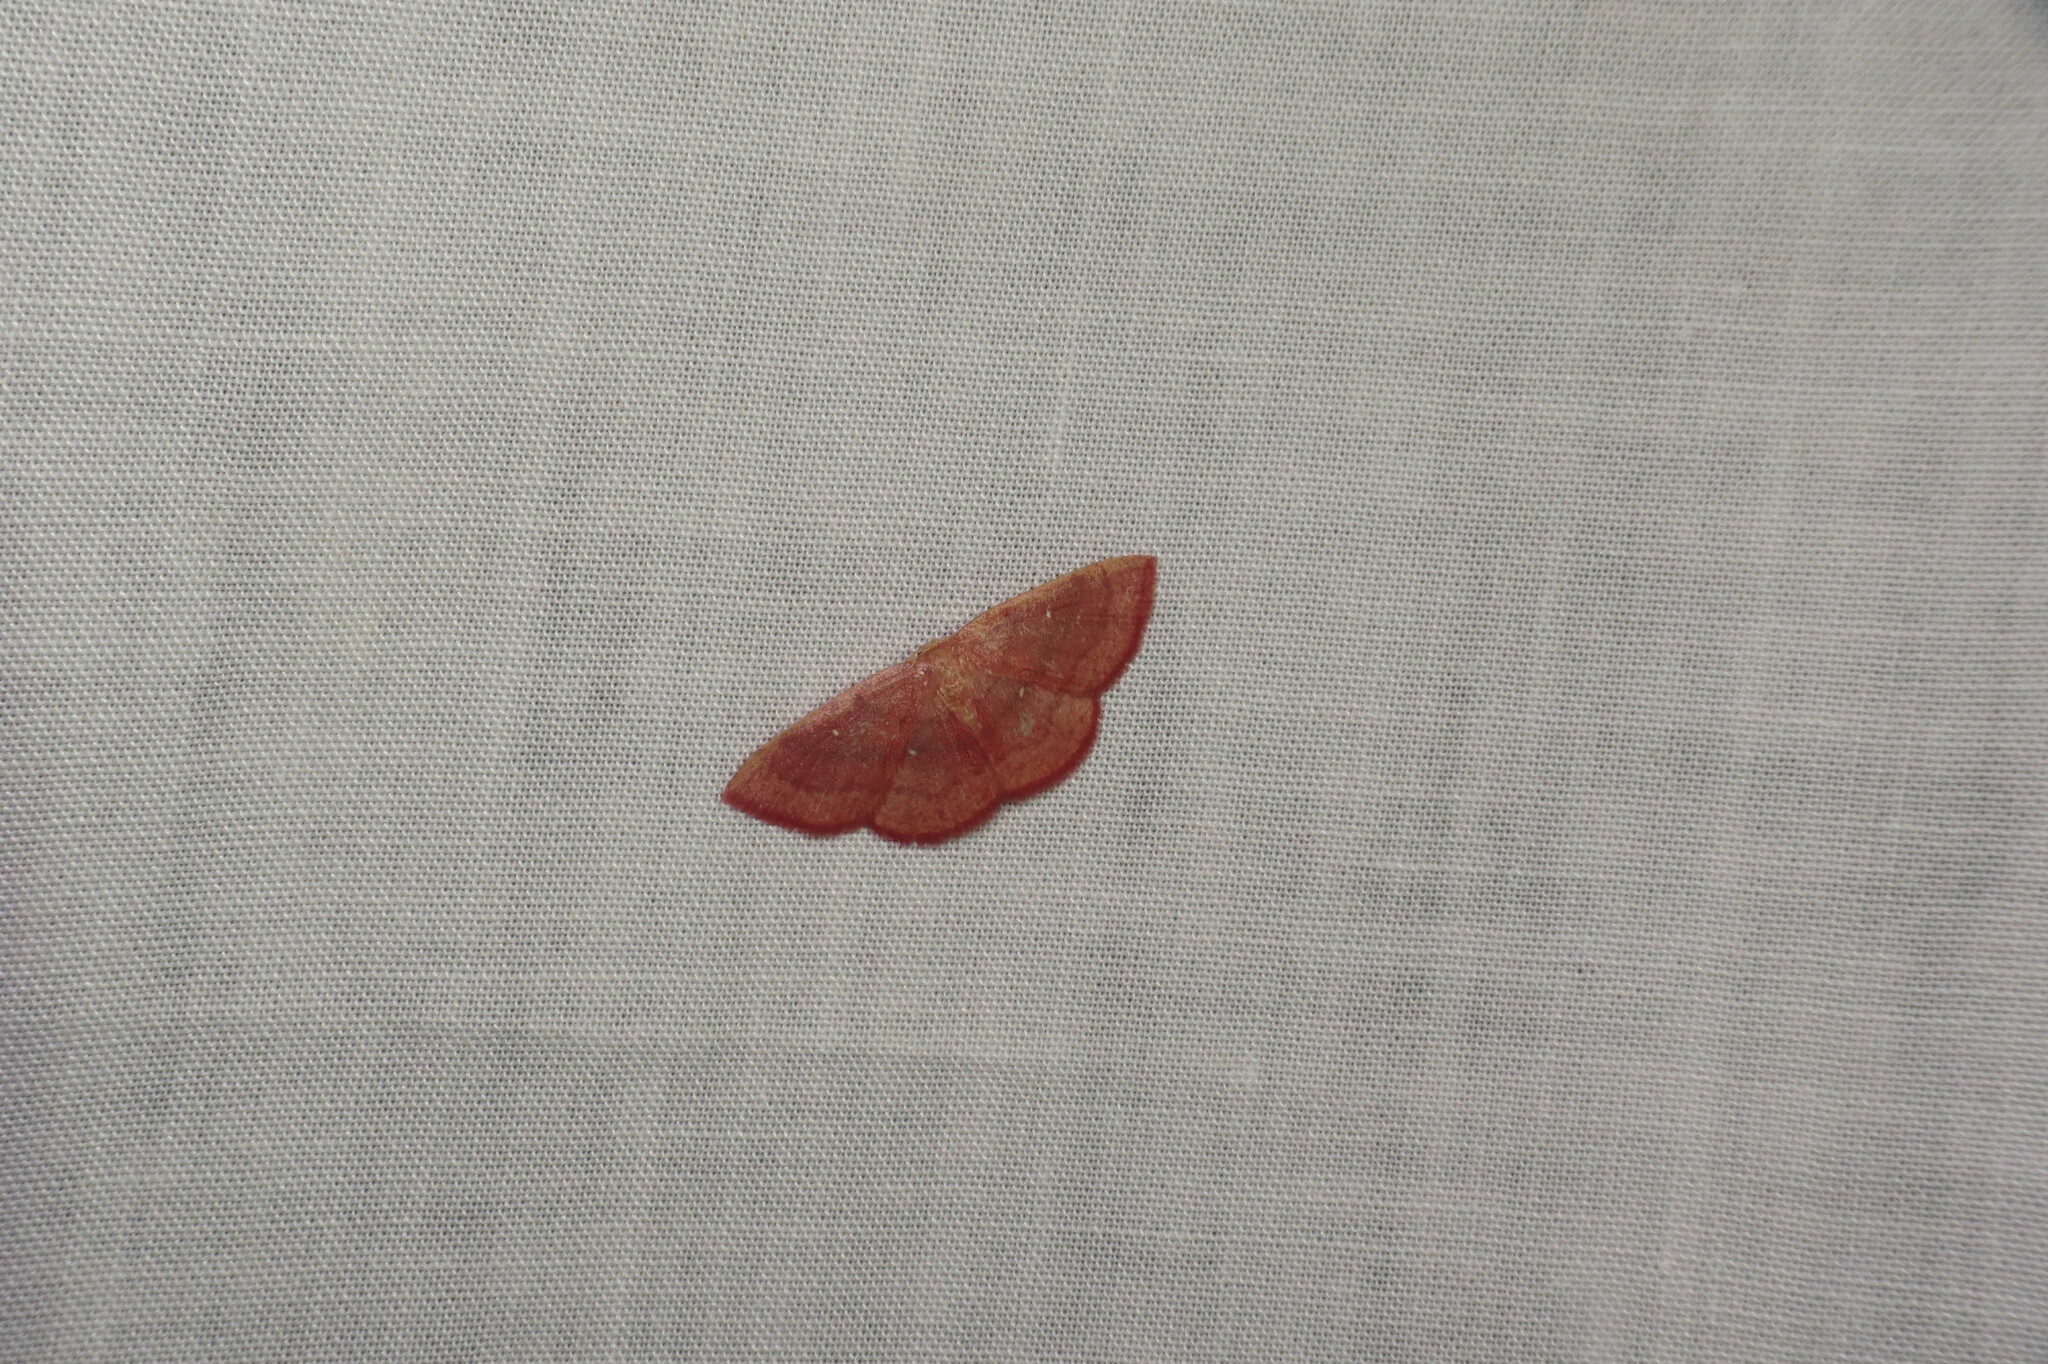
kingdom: Animalia
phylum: Arthropoda
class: Insecta
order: Lepidoptera
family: Geometridae
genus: Cyclophora
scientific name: Cyclophora culicaria
